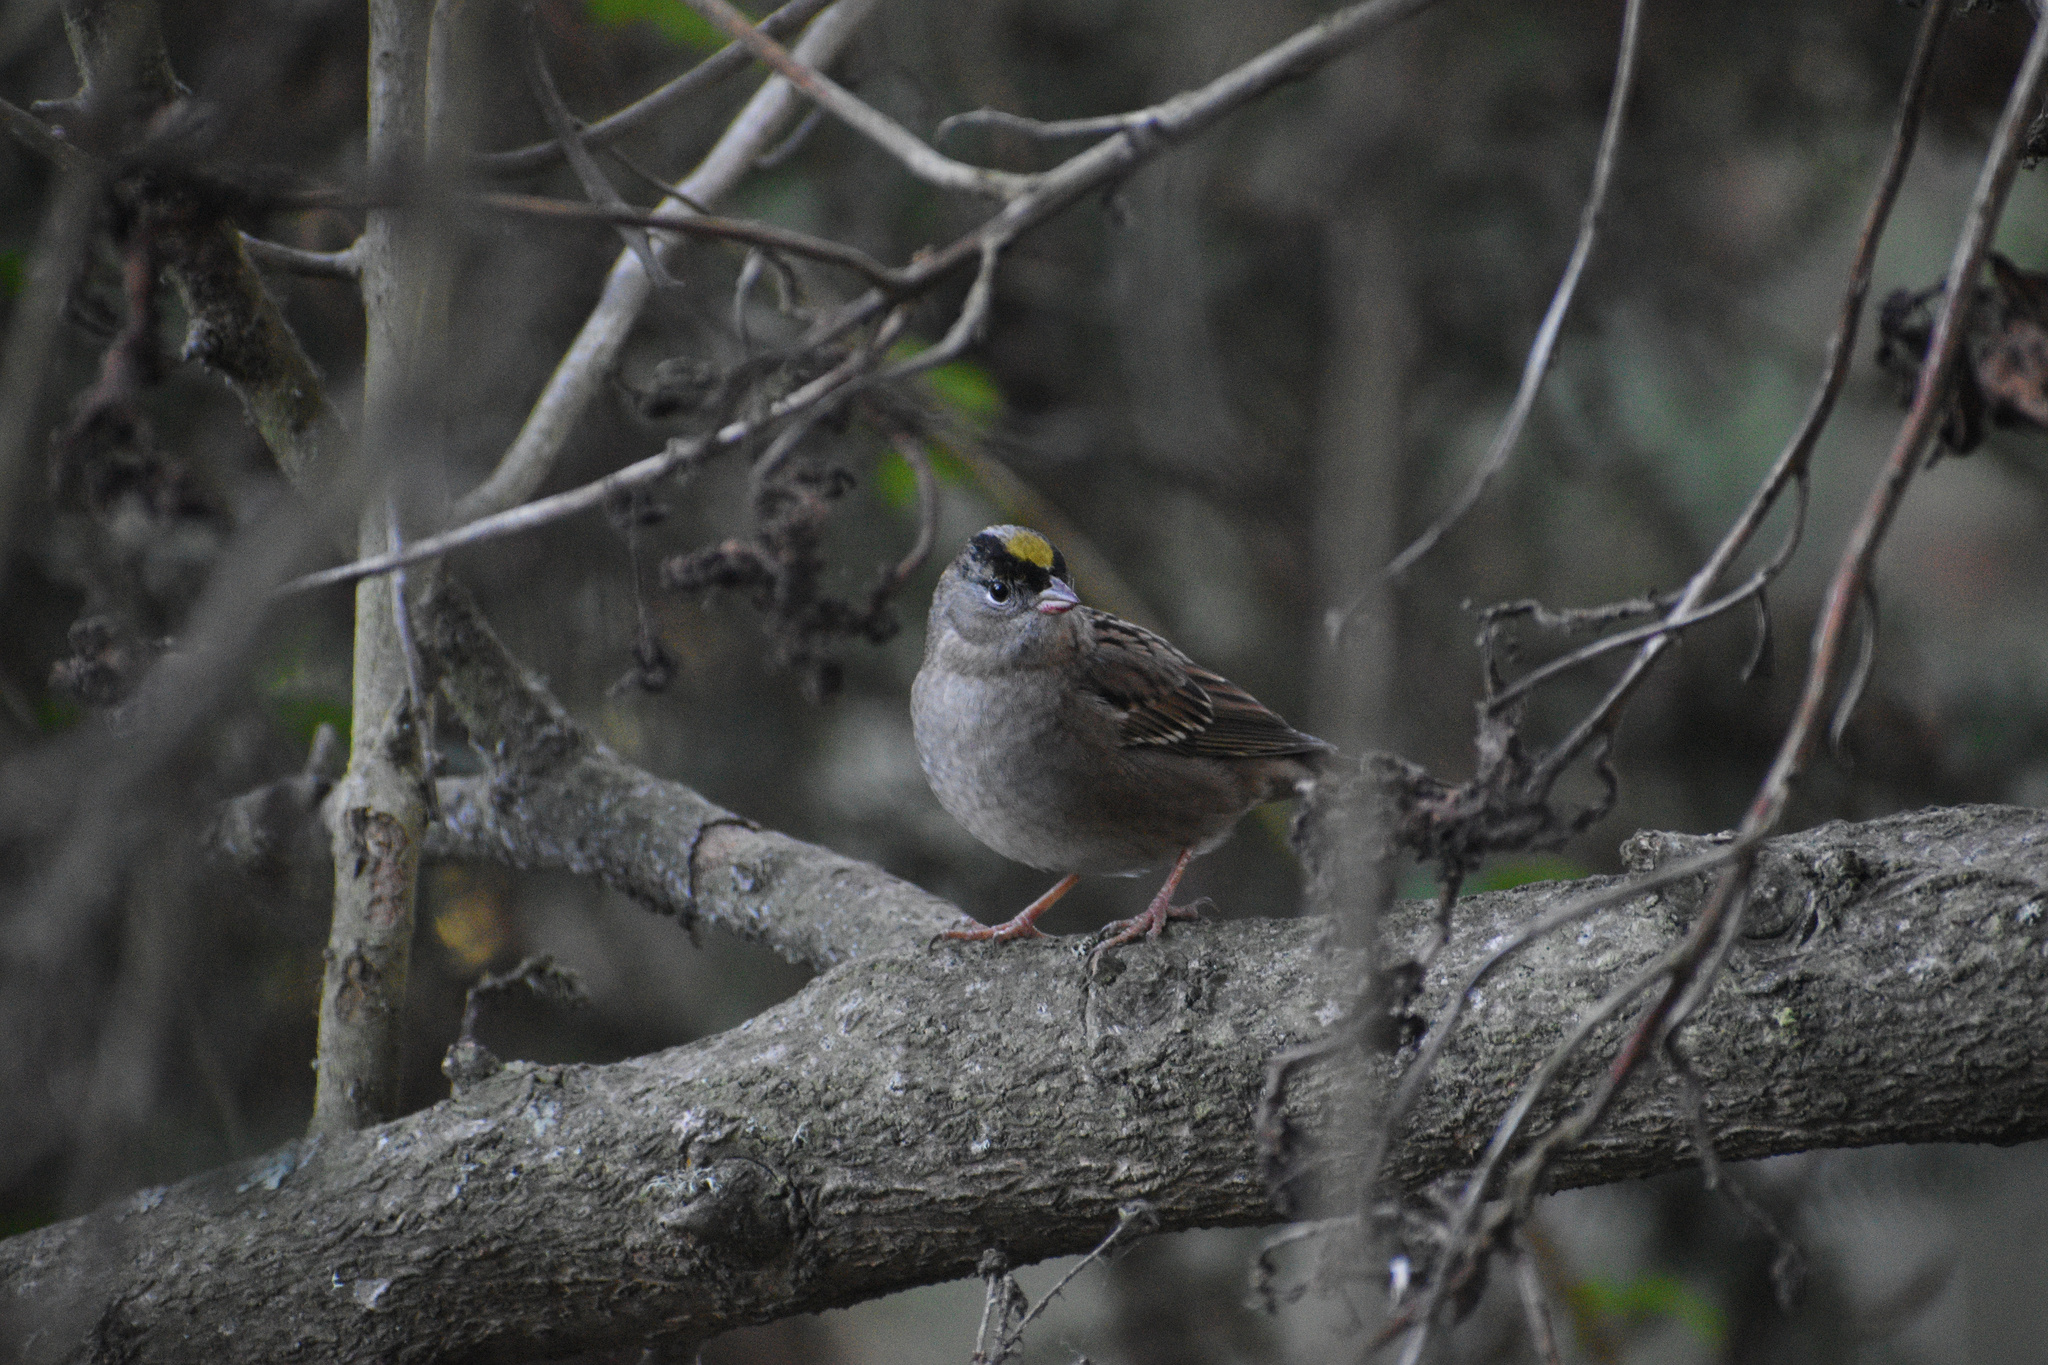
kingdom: Animalia
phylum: Chordata
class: Aves
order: Passeriformes
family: Passerellidae
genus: Zonotrichia
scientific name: Zonotrichia atricapilla
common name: Golden-crowned sparrow
